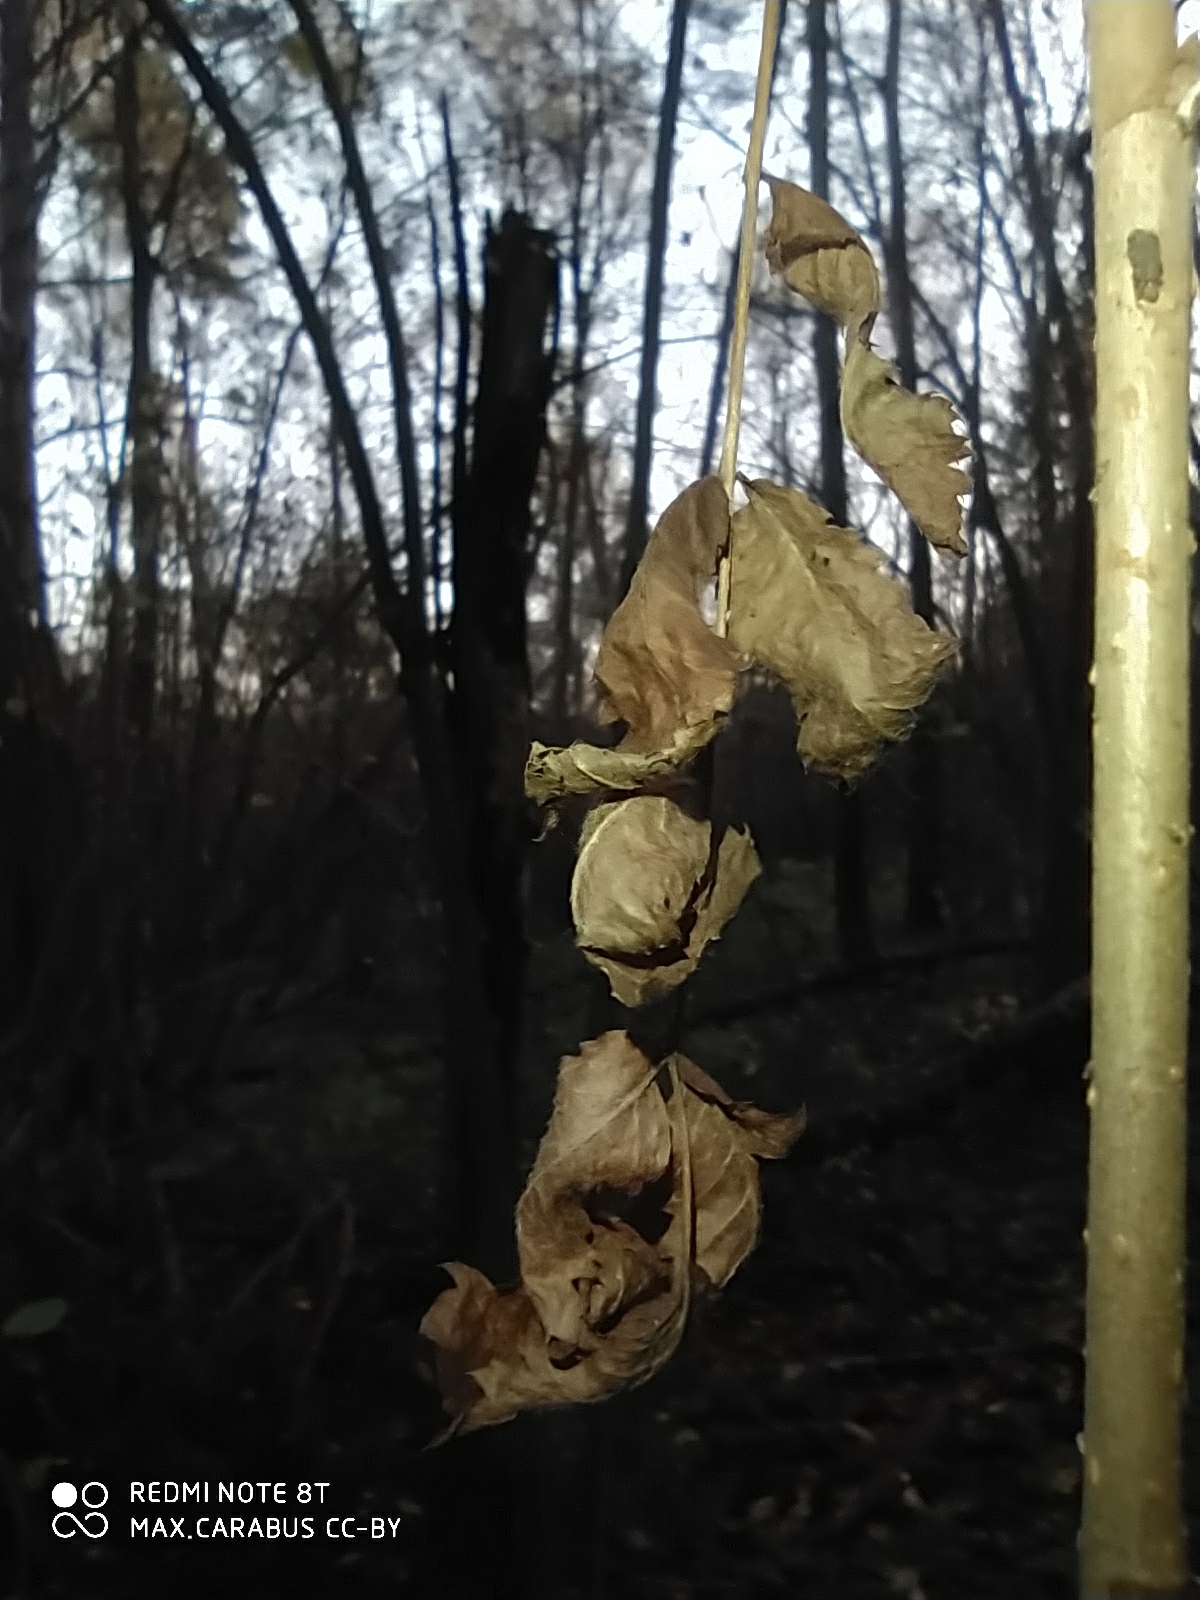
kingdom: Plantae
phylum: Tracheophyta
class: Magnoliopsida
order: Rosales
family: Rosaceae
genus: Sorbus
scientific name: Sorbus aucuparia
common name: Rowan
